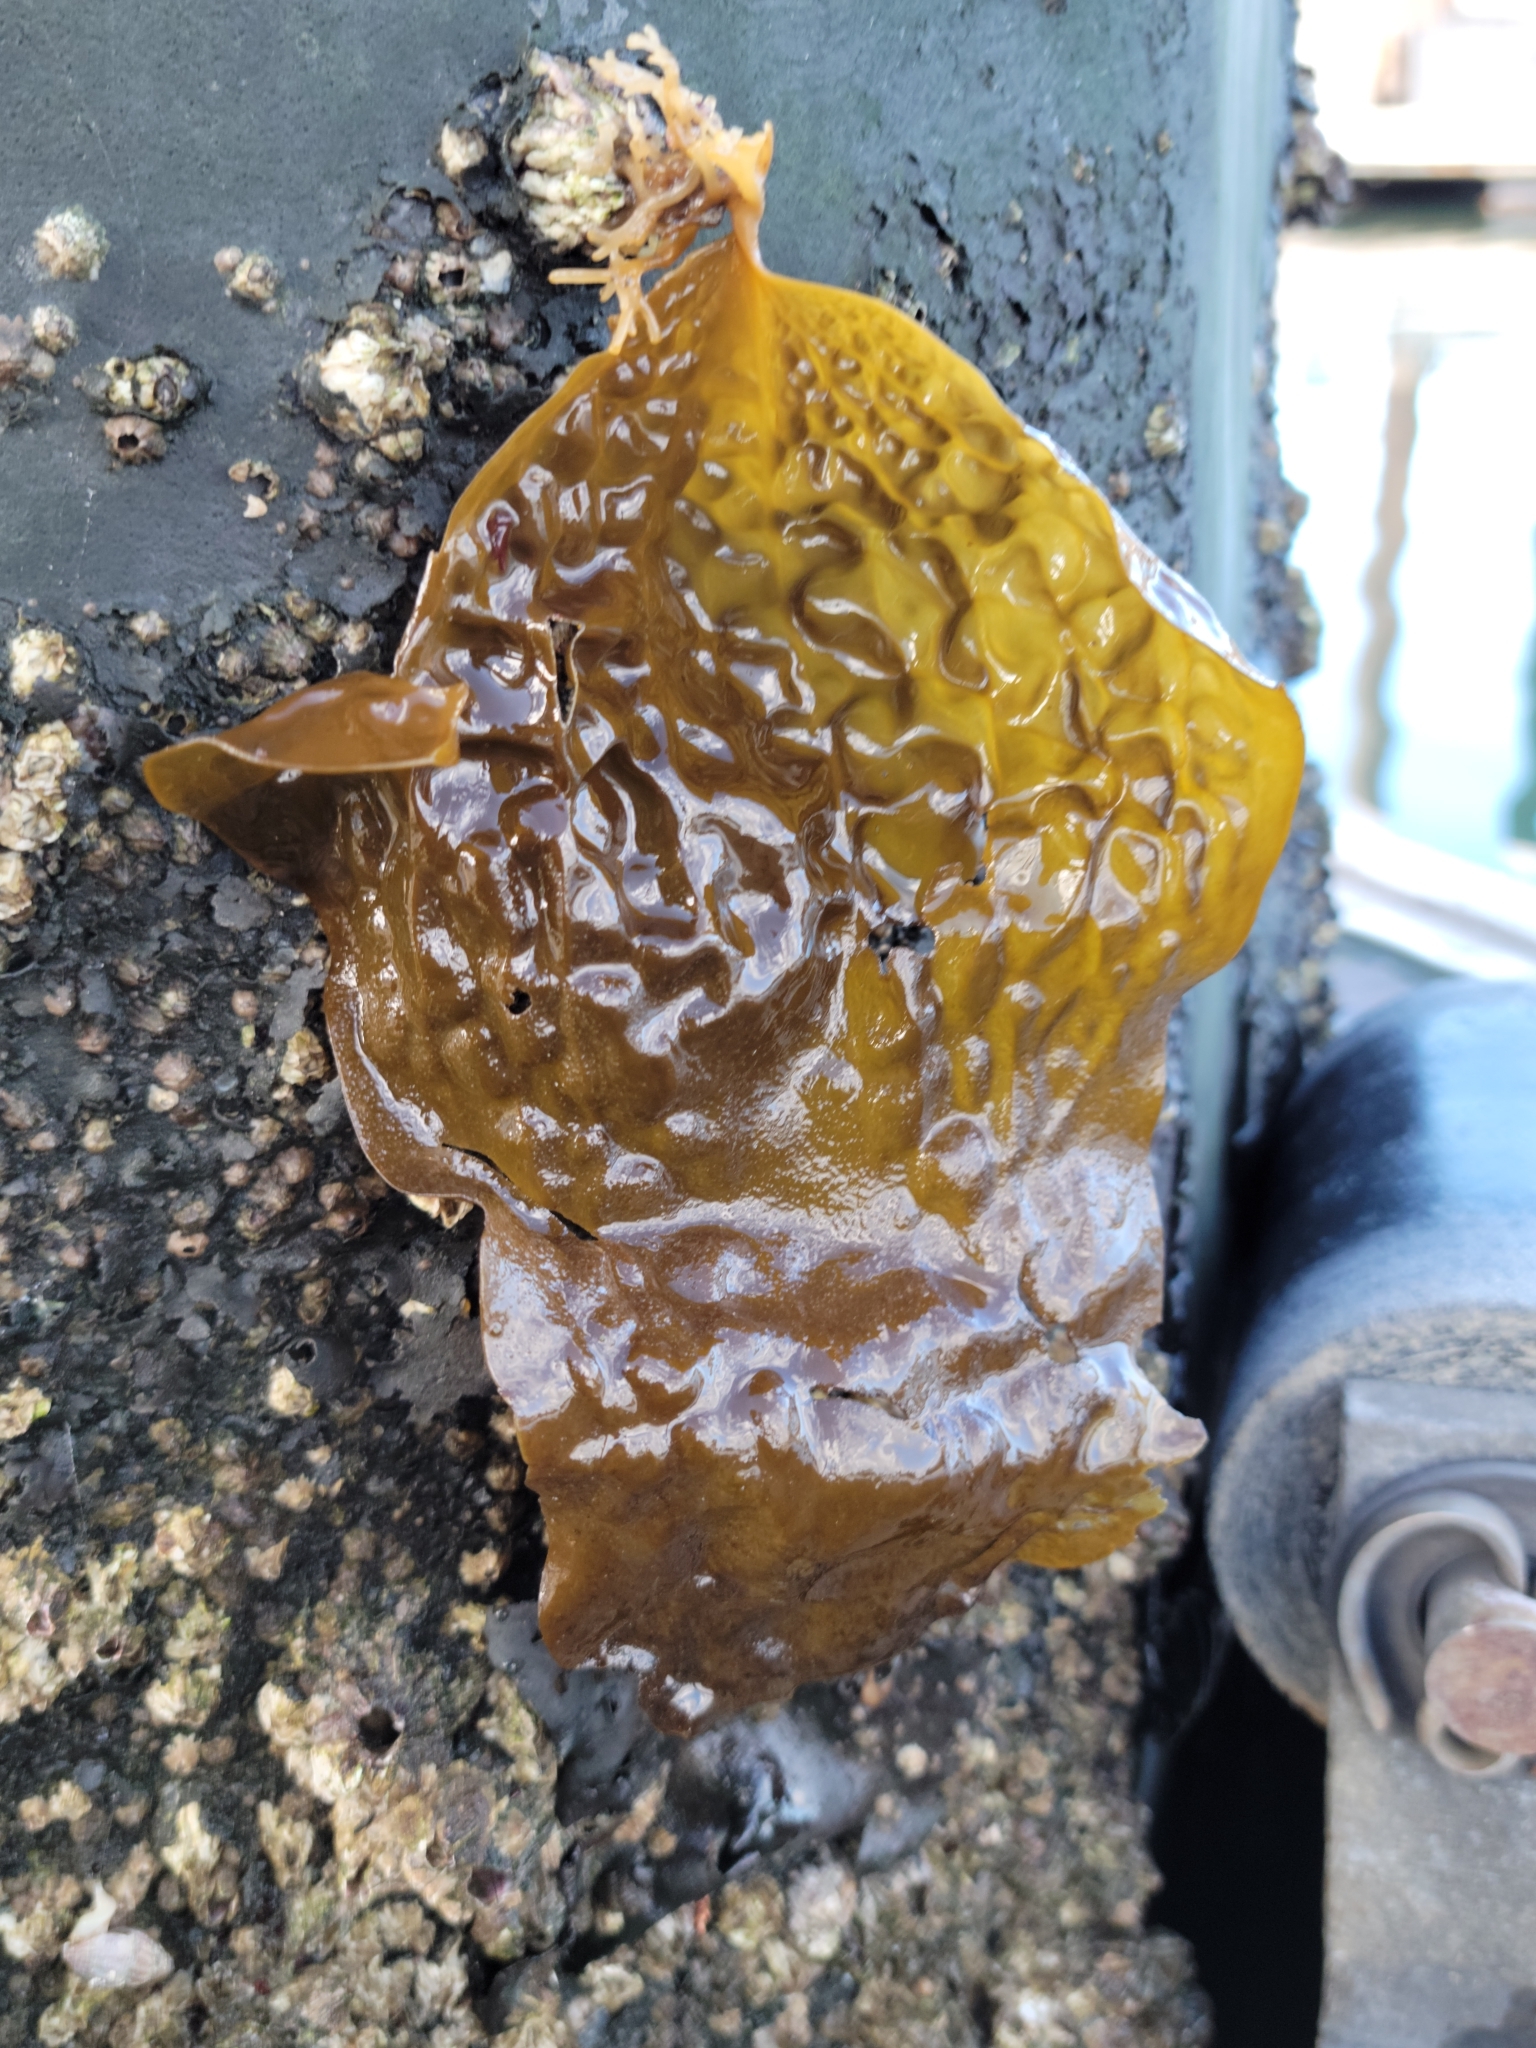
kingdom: Chromista
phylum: Ochrophyta
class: Phaeophyceae
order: Laminariales
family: Costariaceae
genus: Dictyoneurum
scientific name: Dictyoneurum californicum
